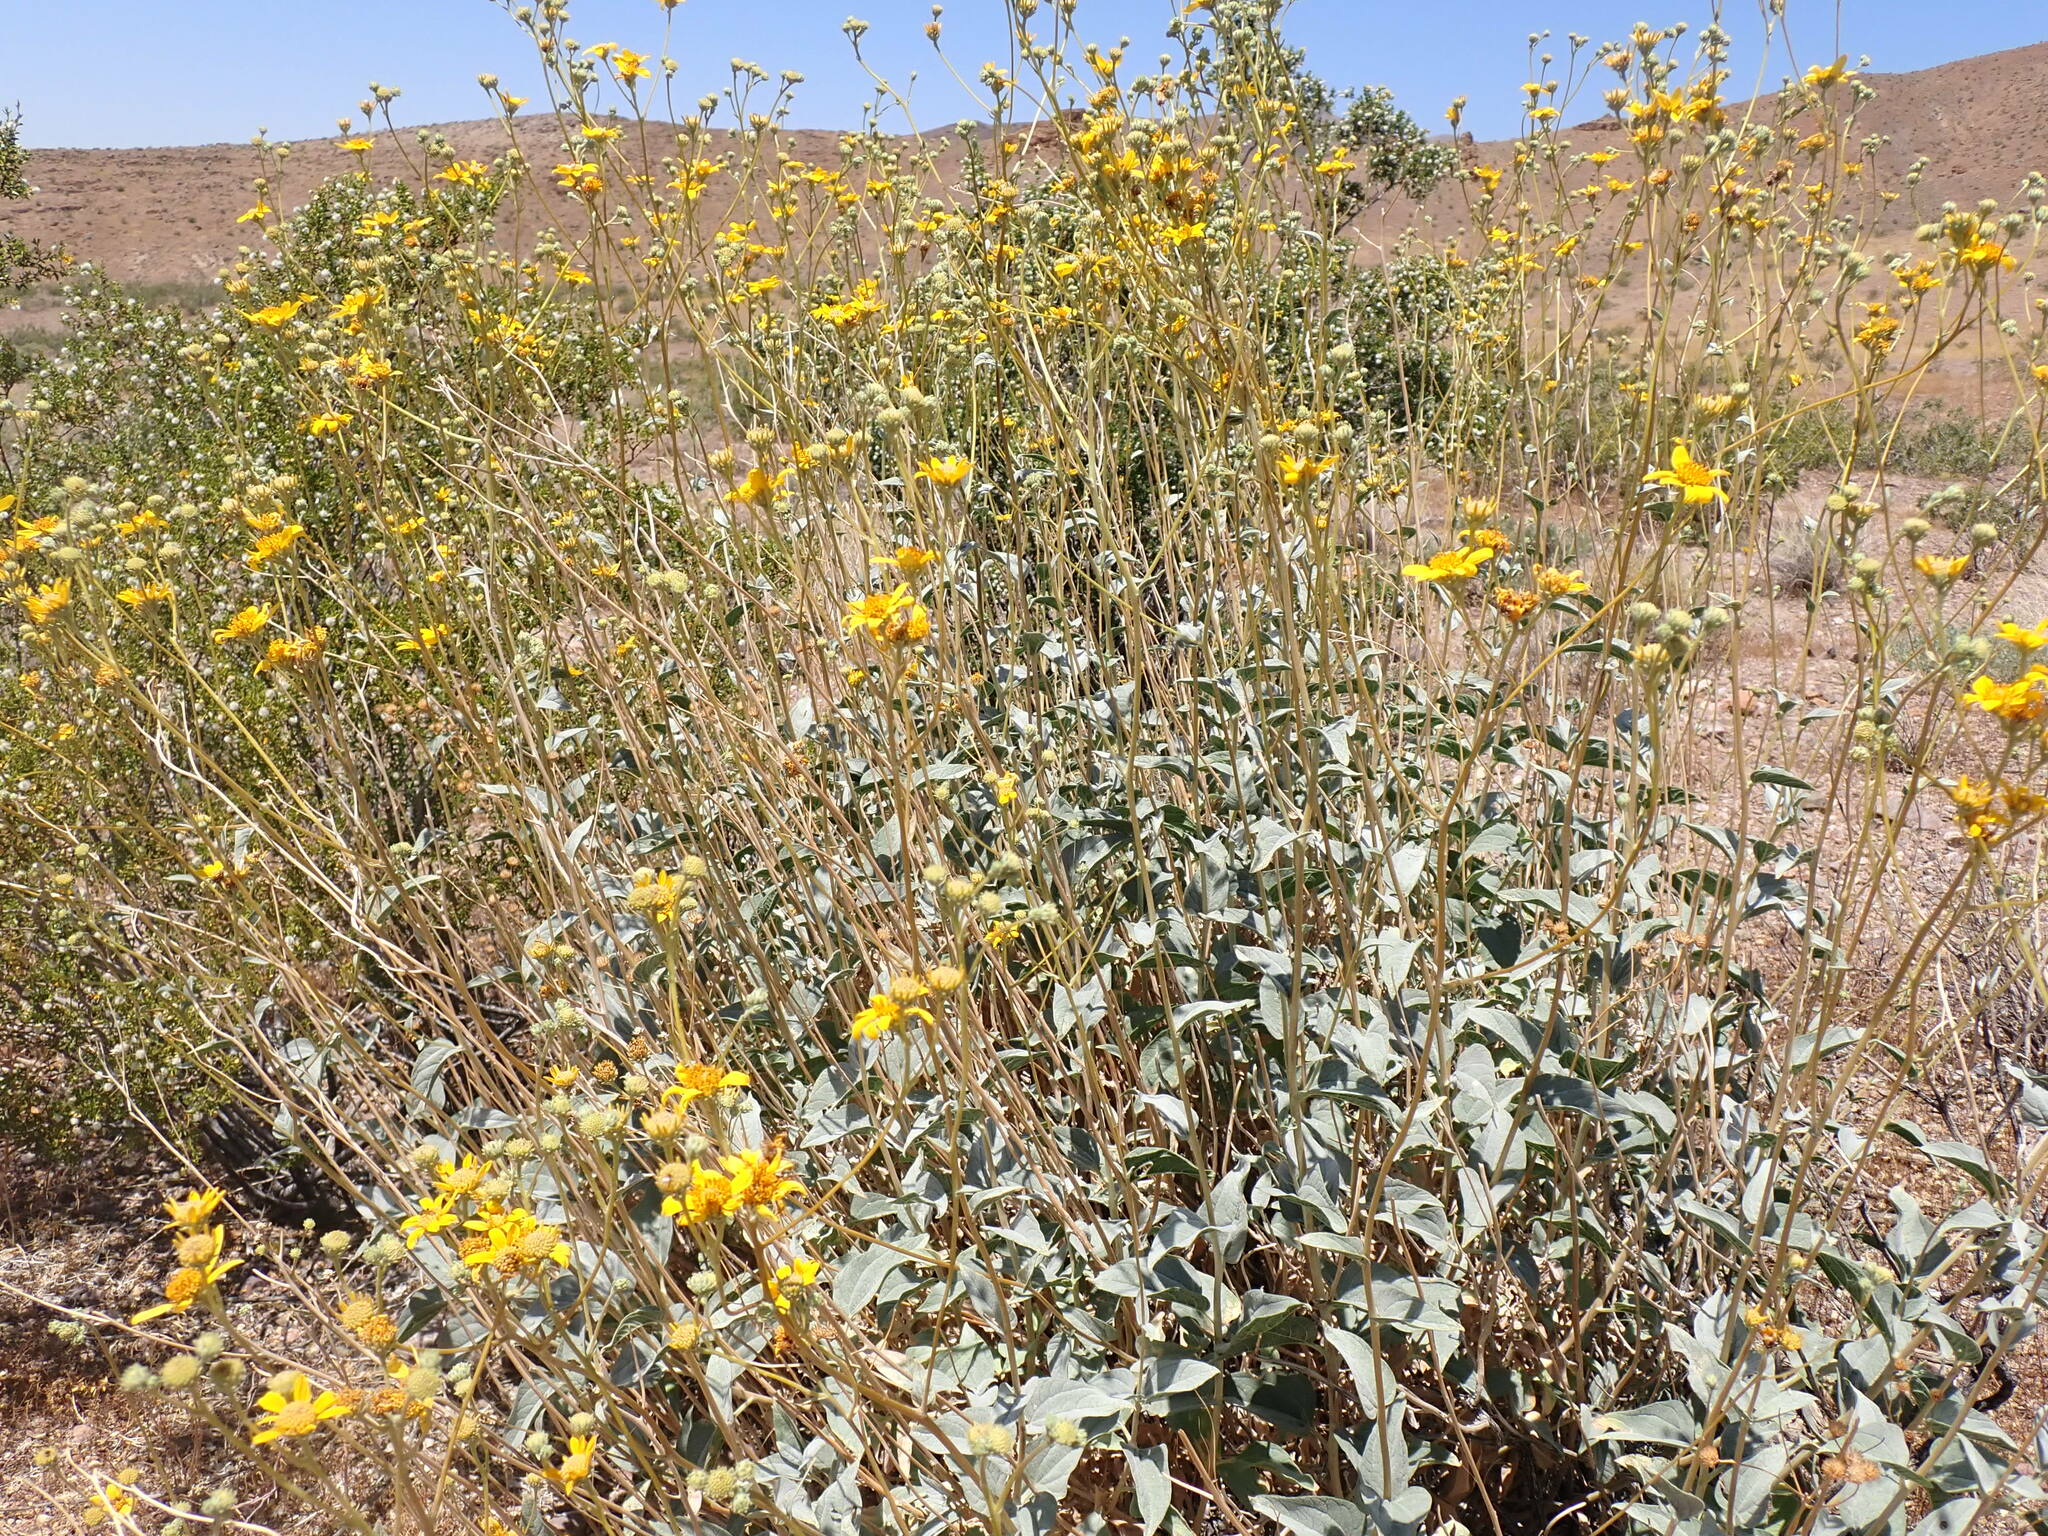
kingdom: Plantae
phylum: Tracheophyta
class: Magnoliopsida
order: Asterales
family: Asteraceae
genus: Bahiopsis
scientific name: Bahiopsis reticulata
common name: Death valley goldeneye
